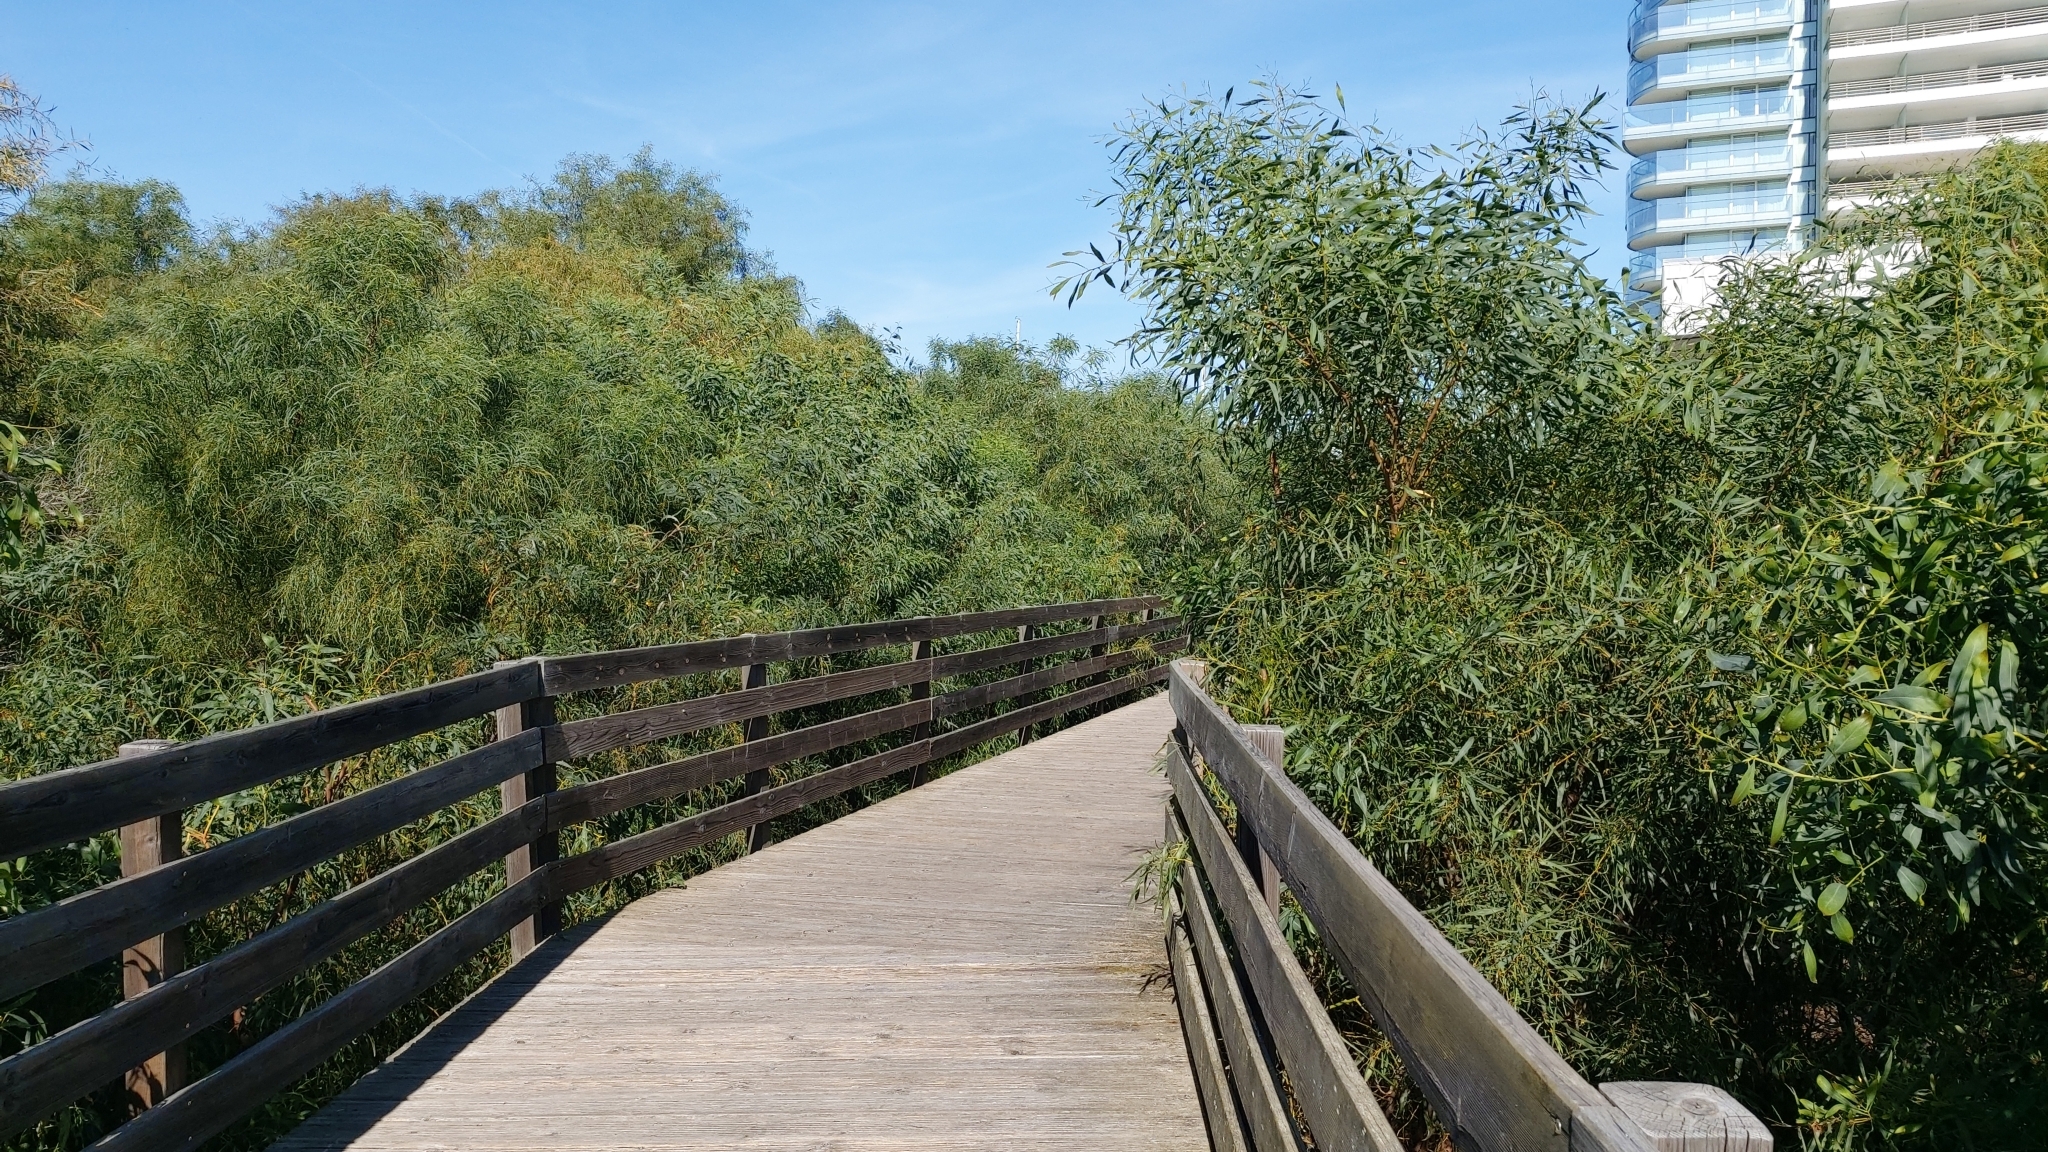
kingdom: Plantae
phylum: Tracheophyta
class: Magnoliopsida
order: Fabales
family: Fabaceae
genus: Acacia
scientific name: Acacia saligna
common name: Orange wattle
